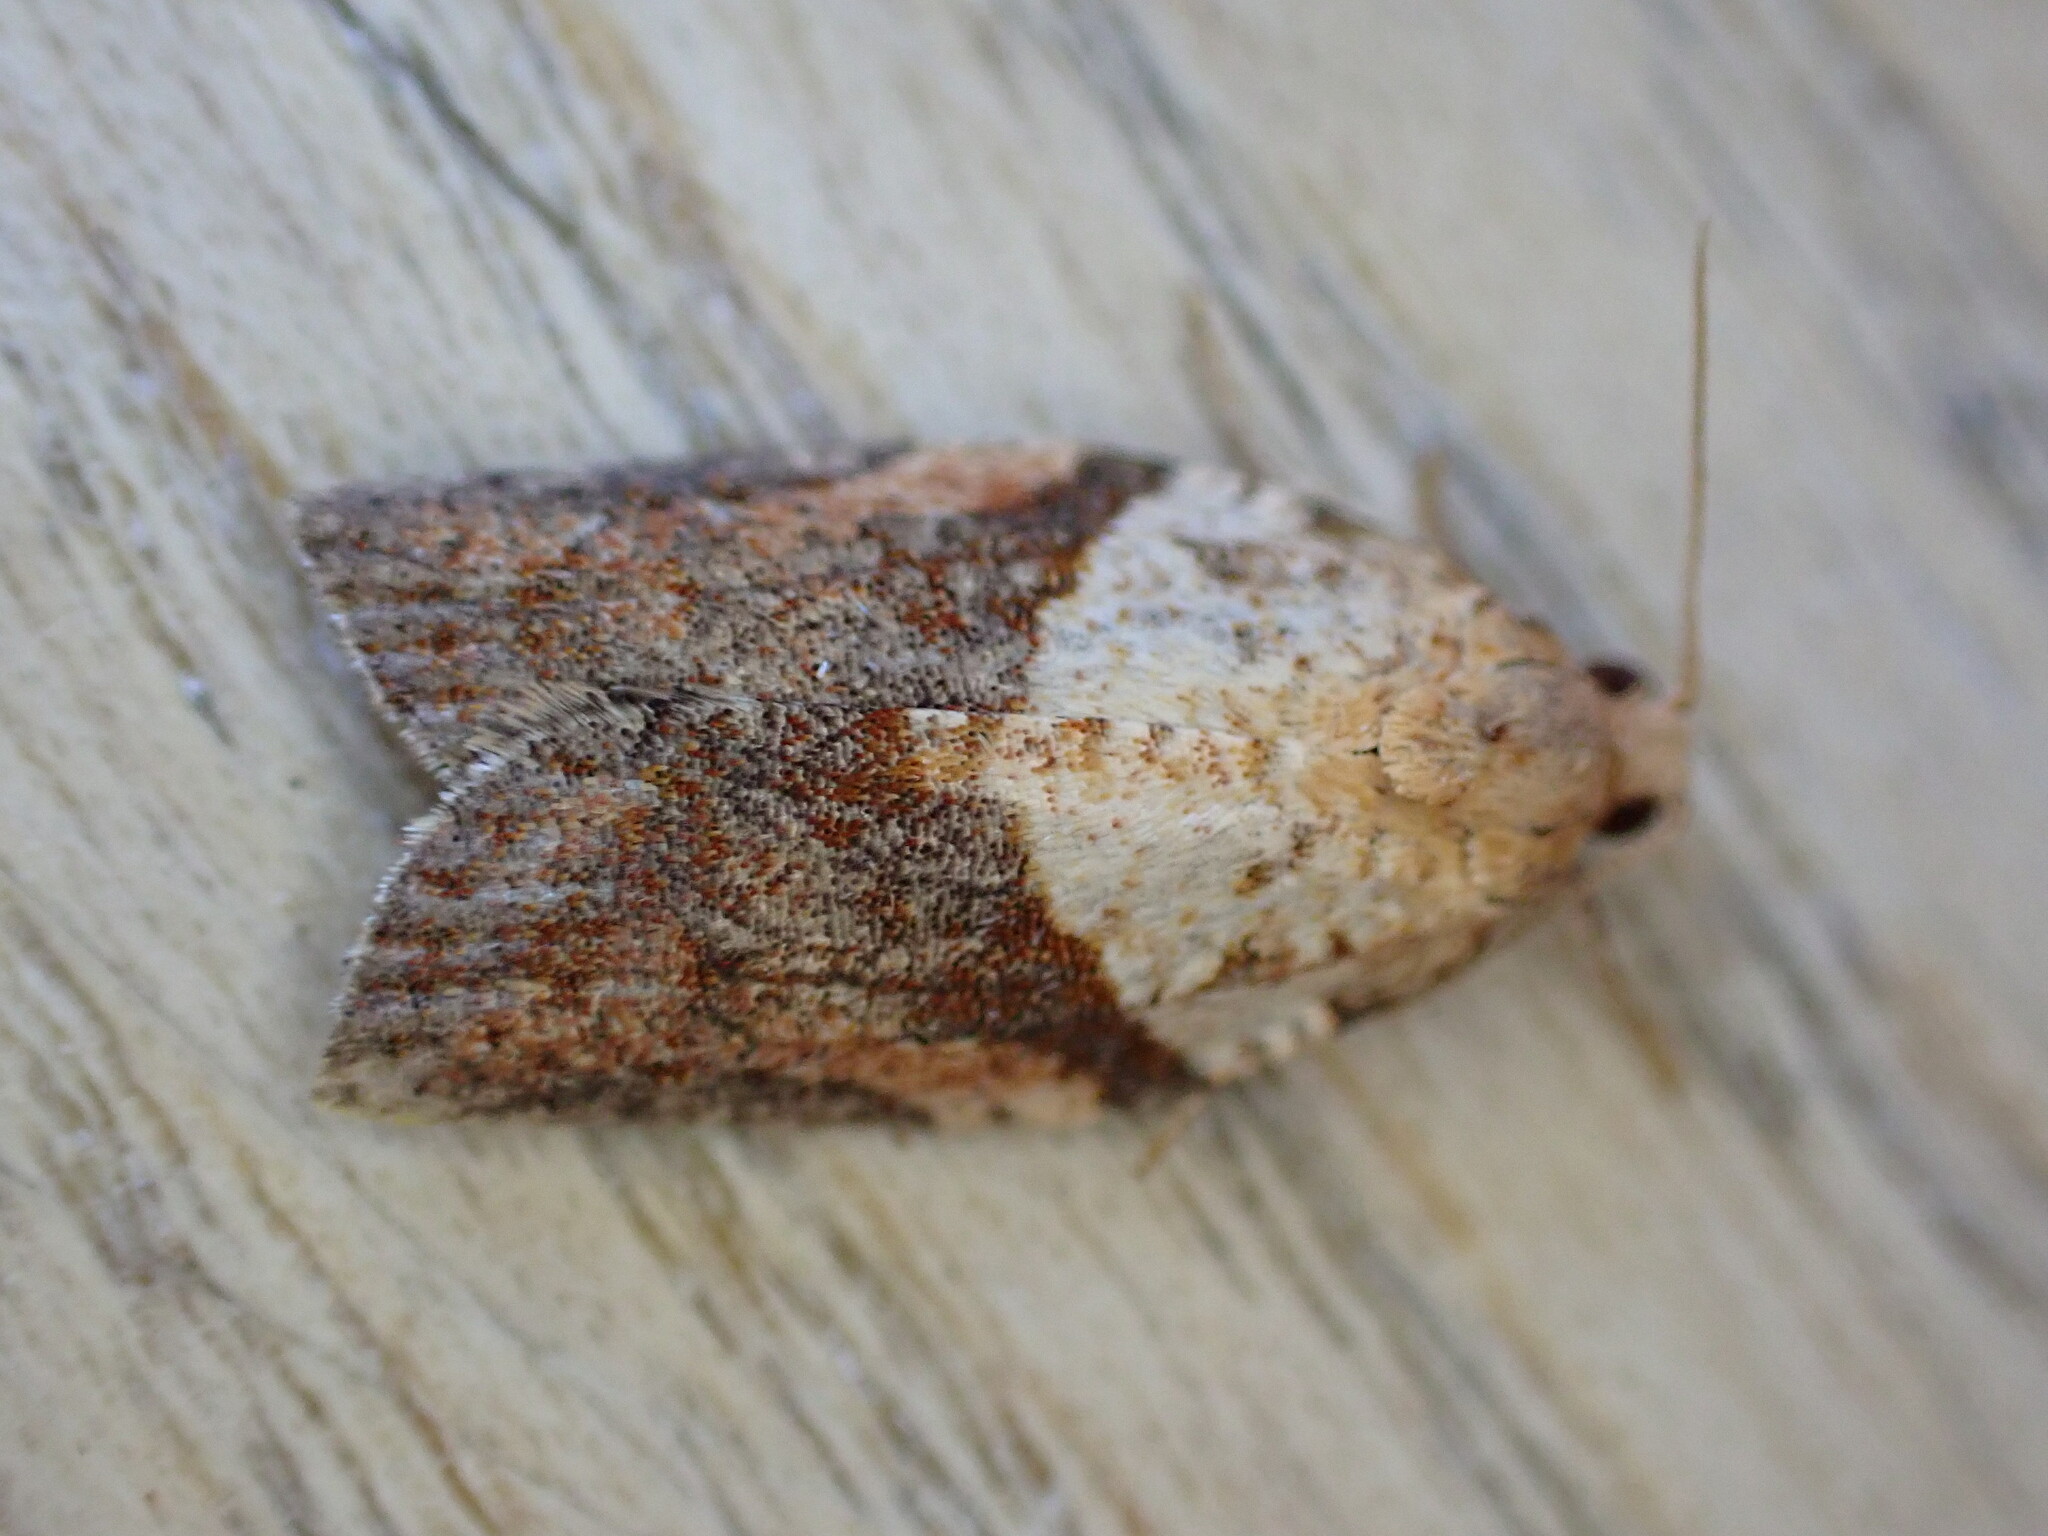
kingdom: Animalia
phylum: Arthropoda
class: Insecta
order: Lepidoptera
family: Tortricidae
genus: Epiphyas
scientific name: Epiphyas postvittana
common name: Light brown apple moth
